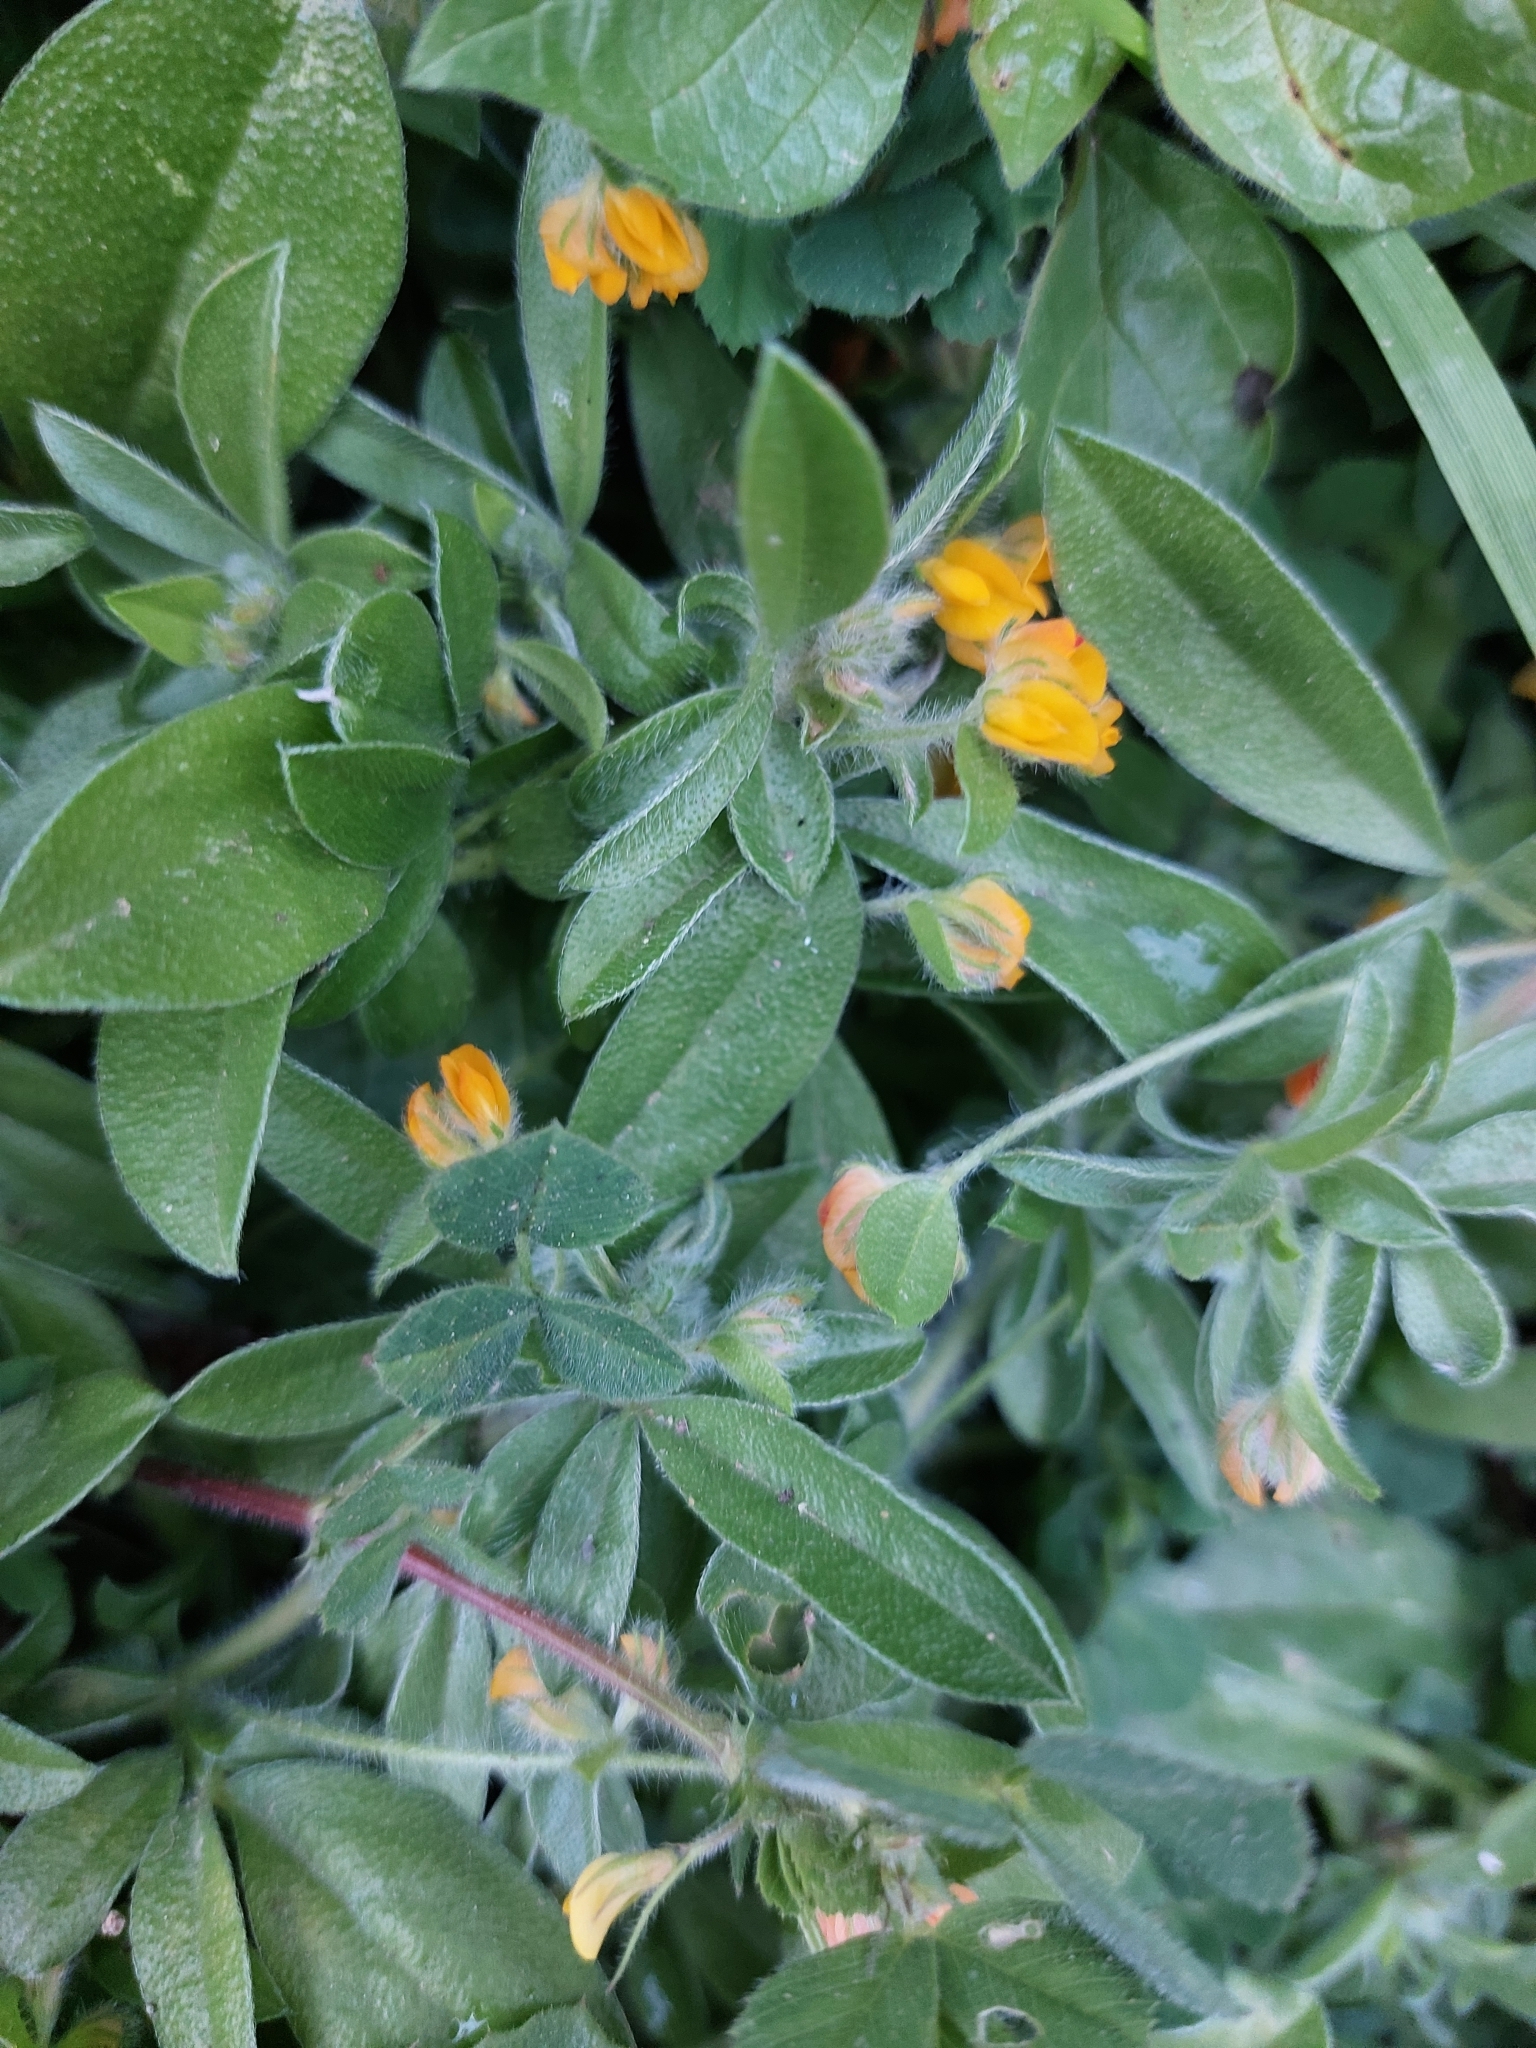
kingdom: Plantae
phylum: Tracheophyta
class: Magnoliopsida
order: Fabales
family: Fabaceae
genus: Anthyllis
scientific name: Anthyllis circinnata
